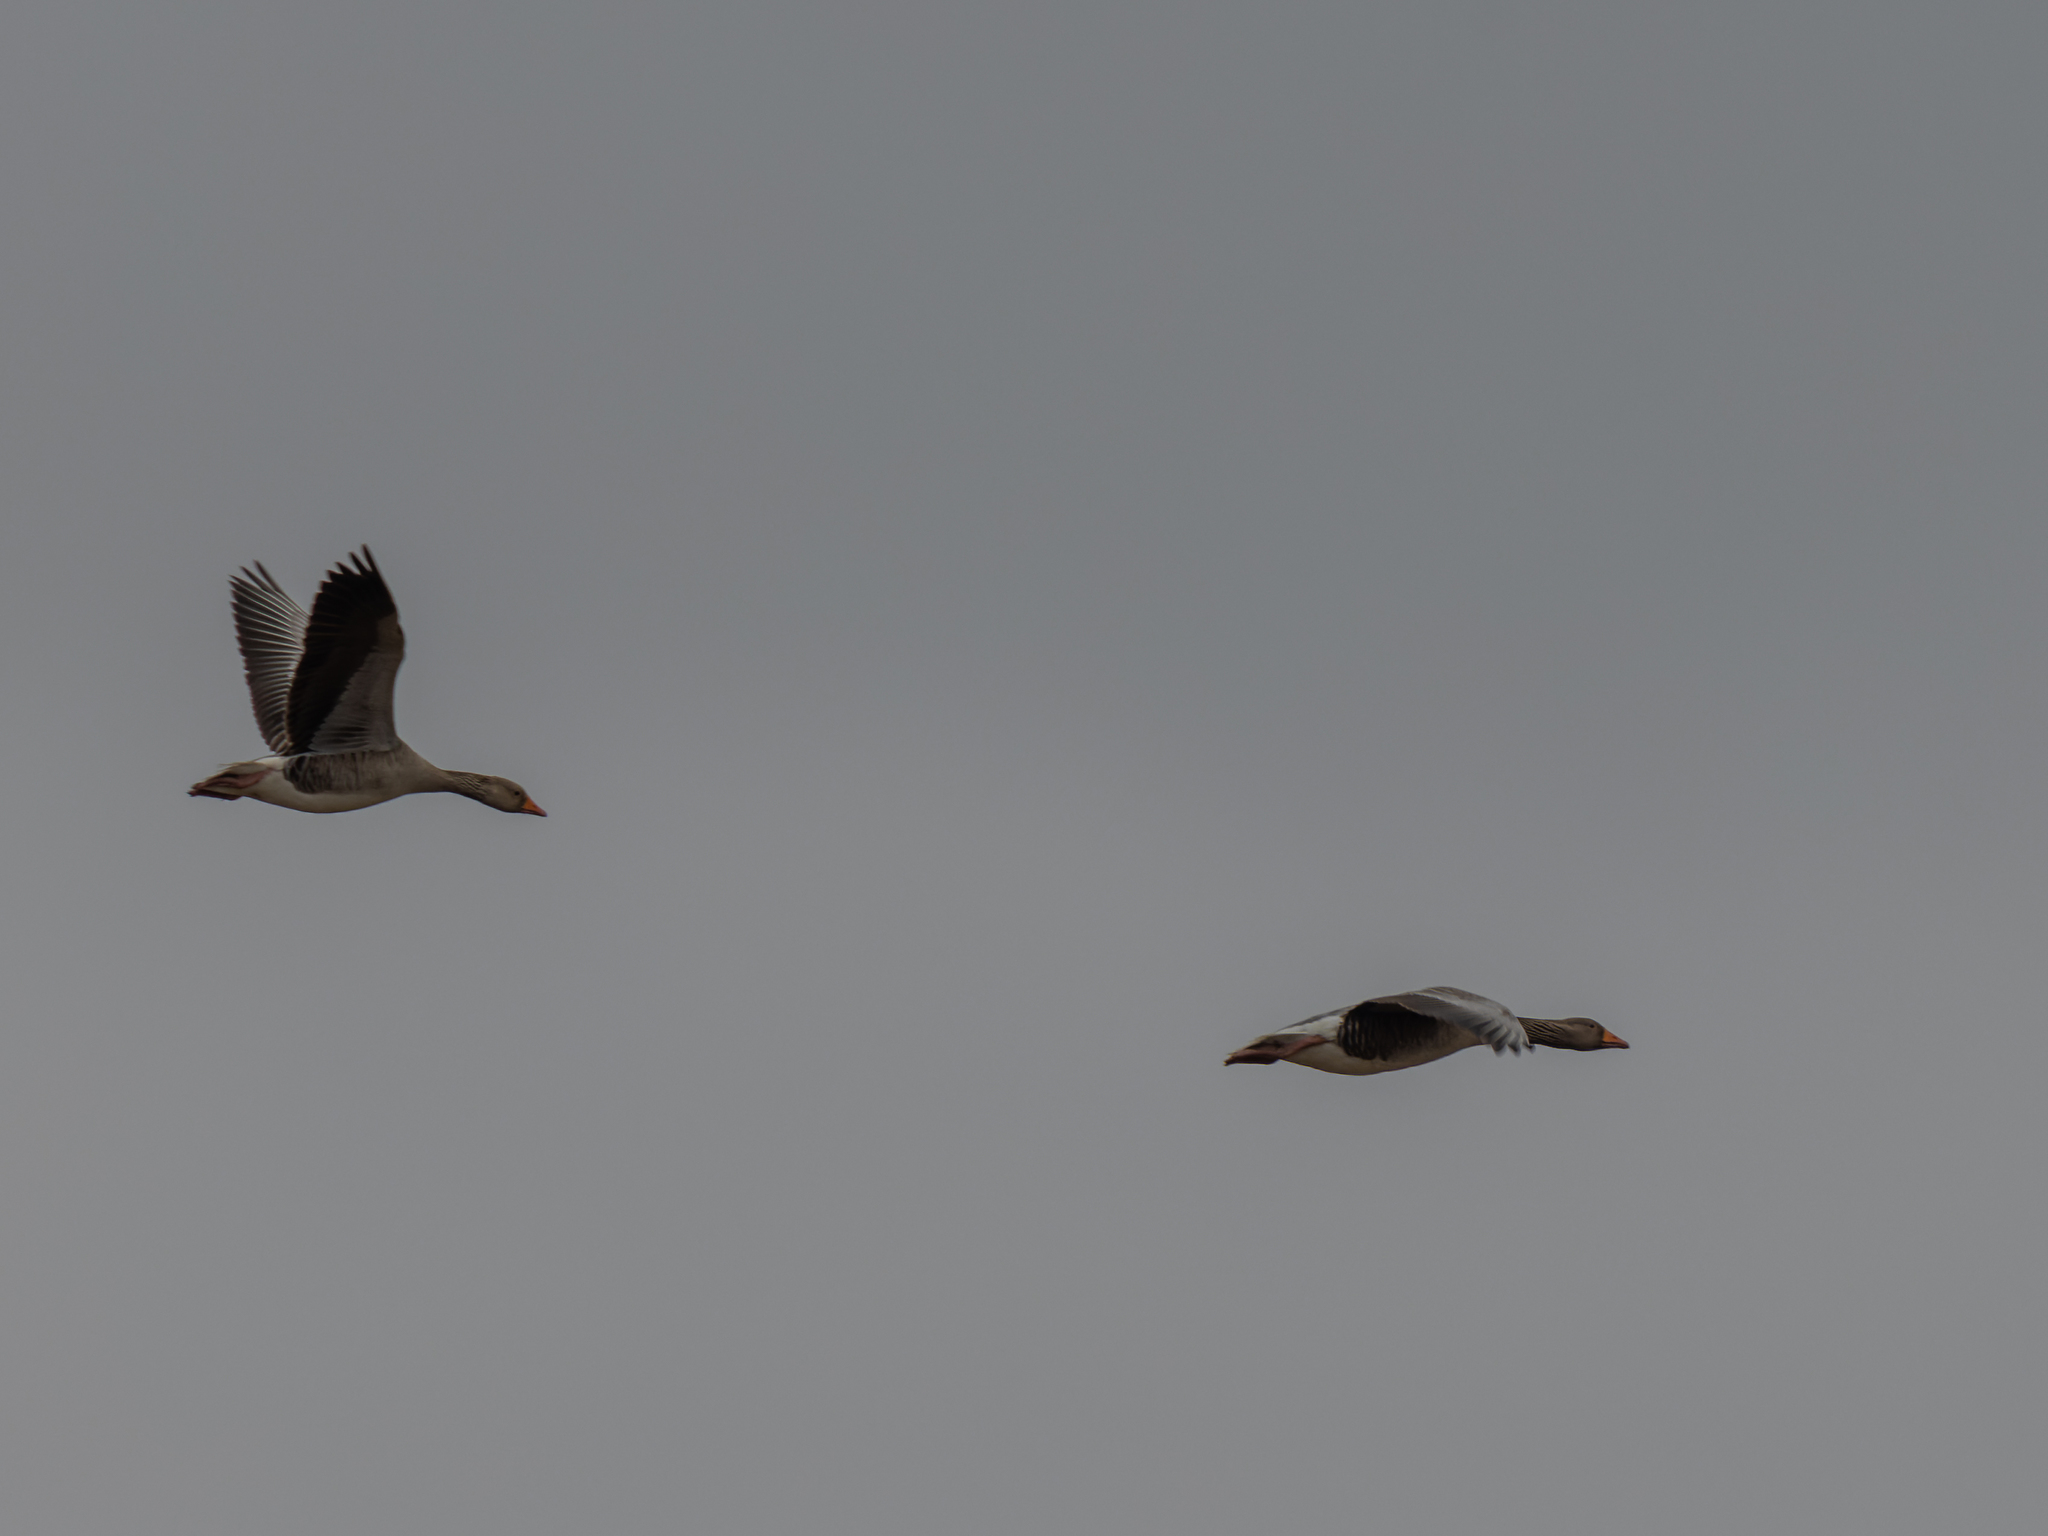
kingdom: Animalia
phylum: Chordata
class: Aves
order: Anseriformes
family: Anatidae
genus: Anser
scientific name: Anser anser
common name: Greylag goose
